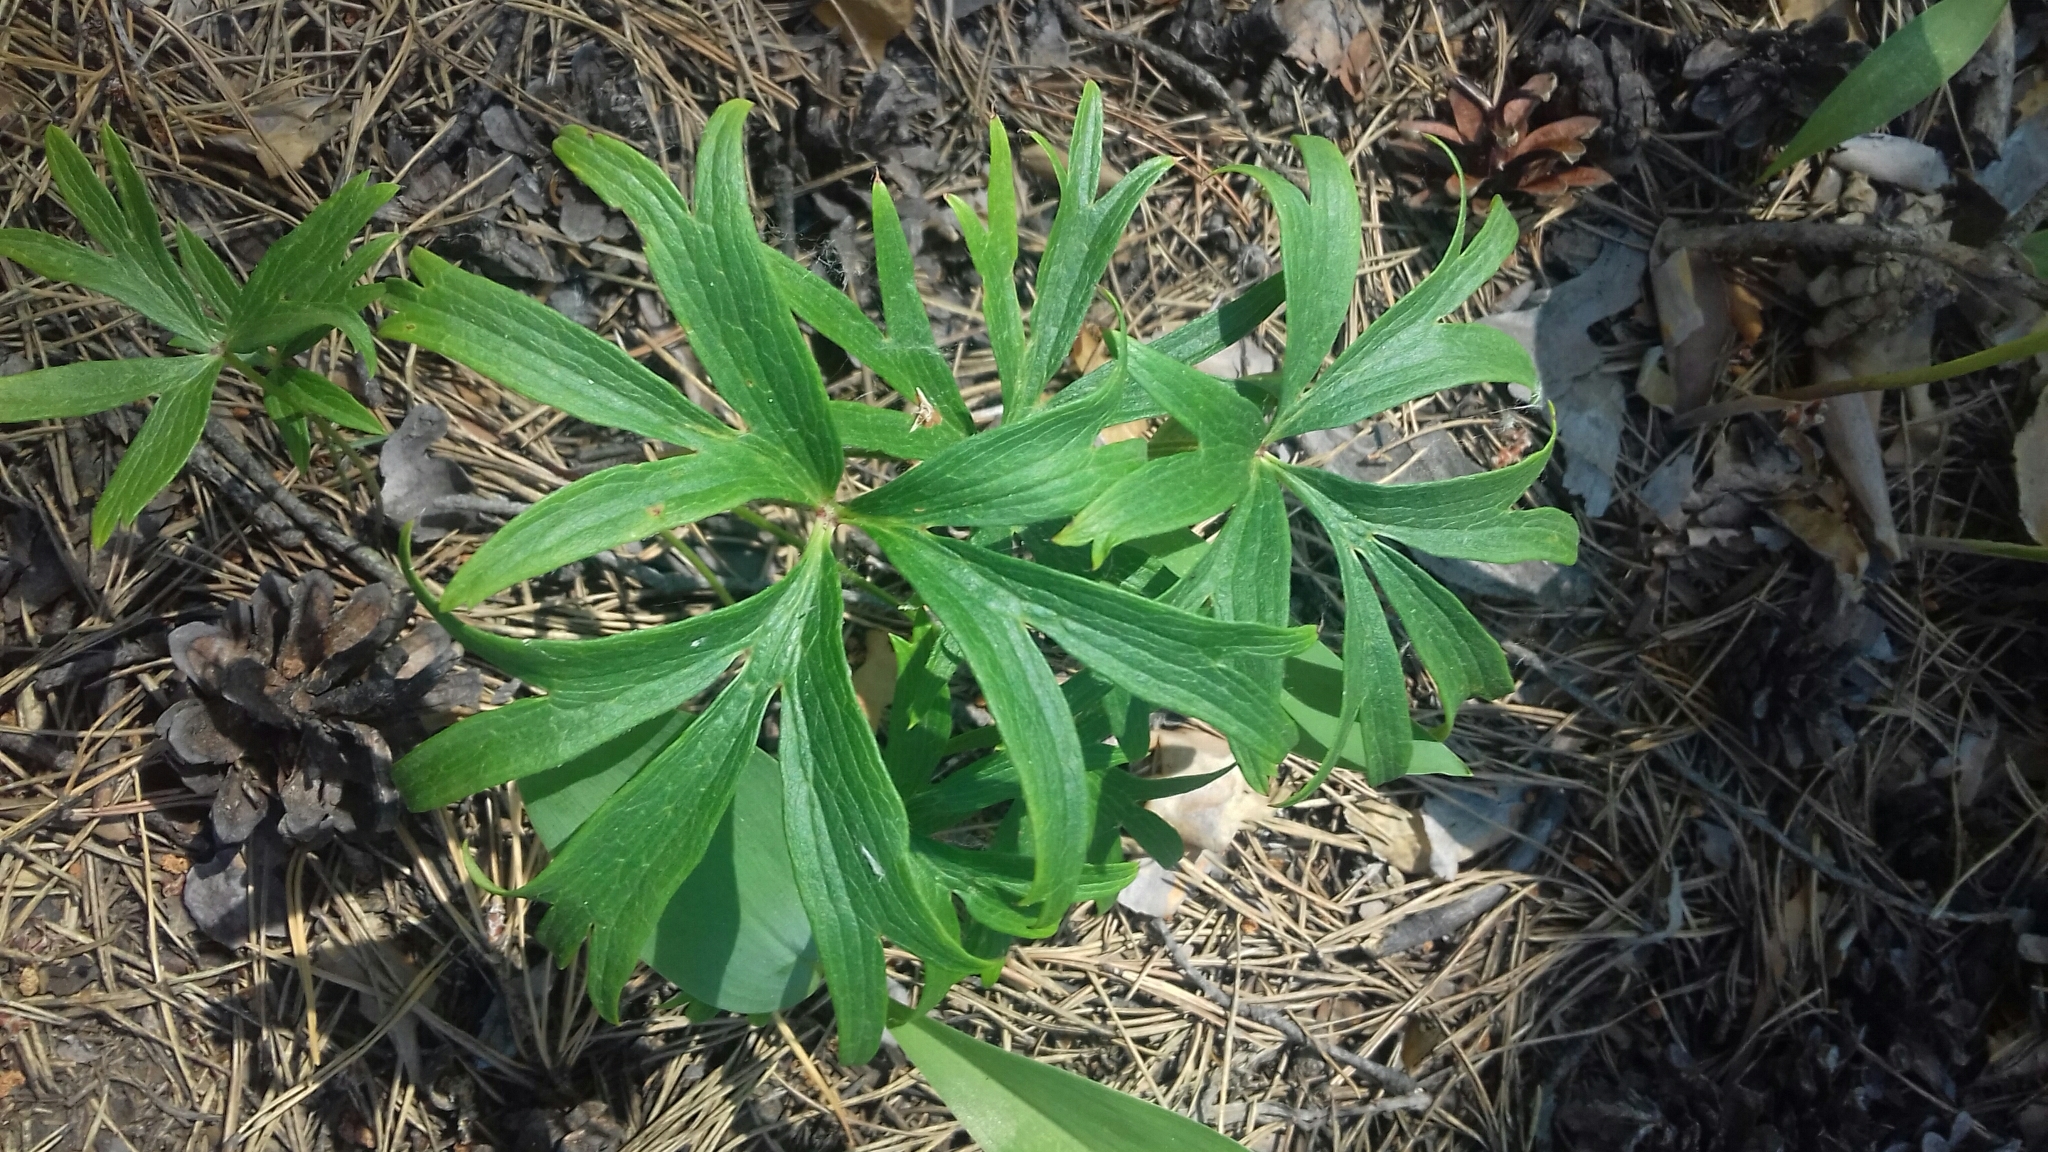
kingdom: Plantae
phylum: Tracheophyta
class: Magnoliopsida
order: Ranunculales
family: Ranunculaceae
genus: Pulsatilla
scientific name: Pulsatilla patens
